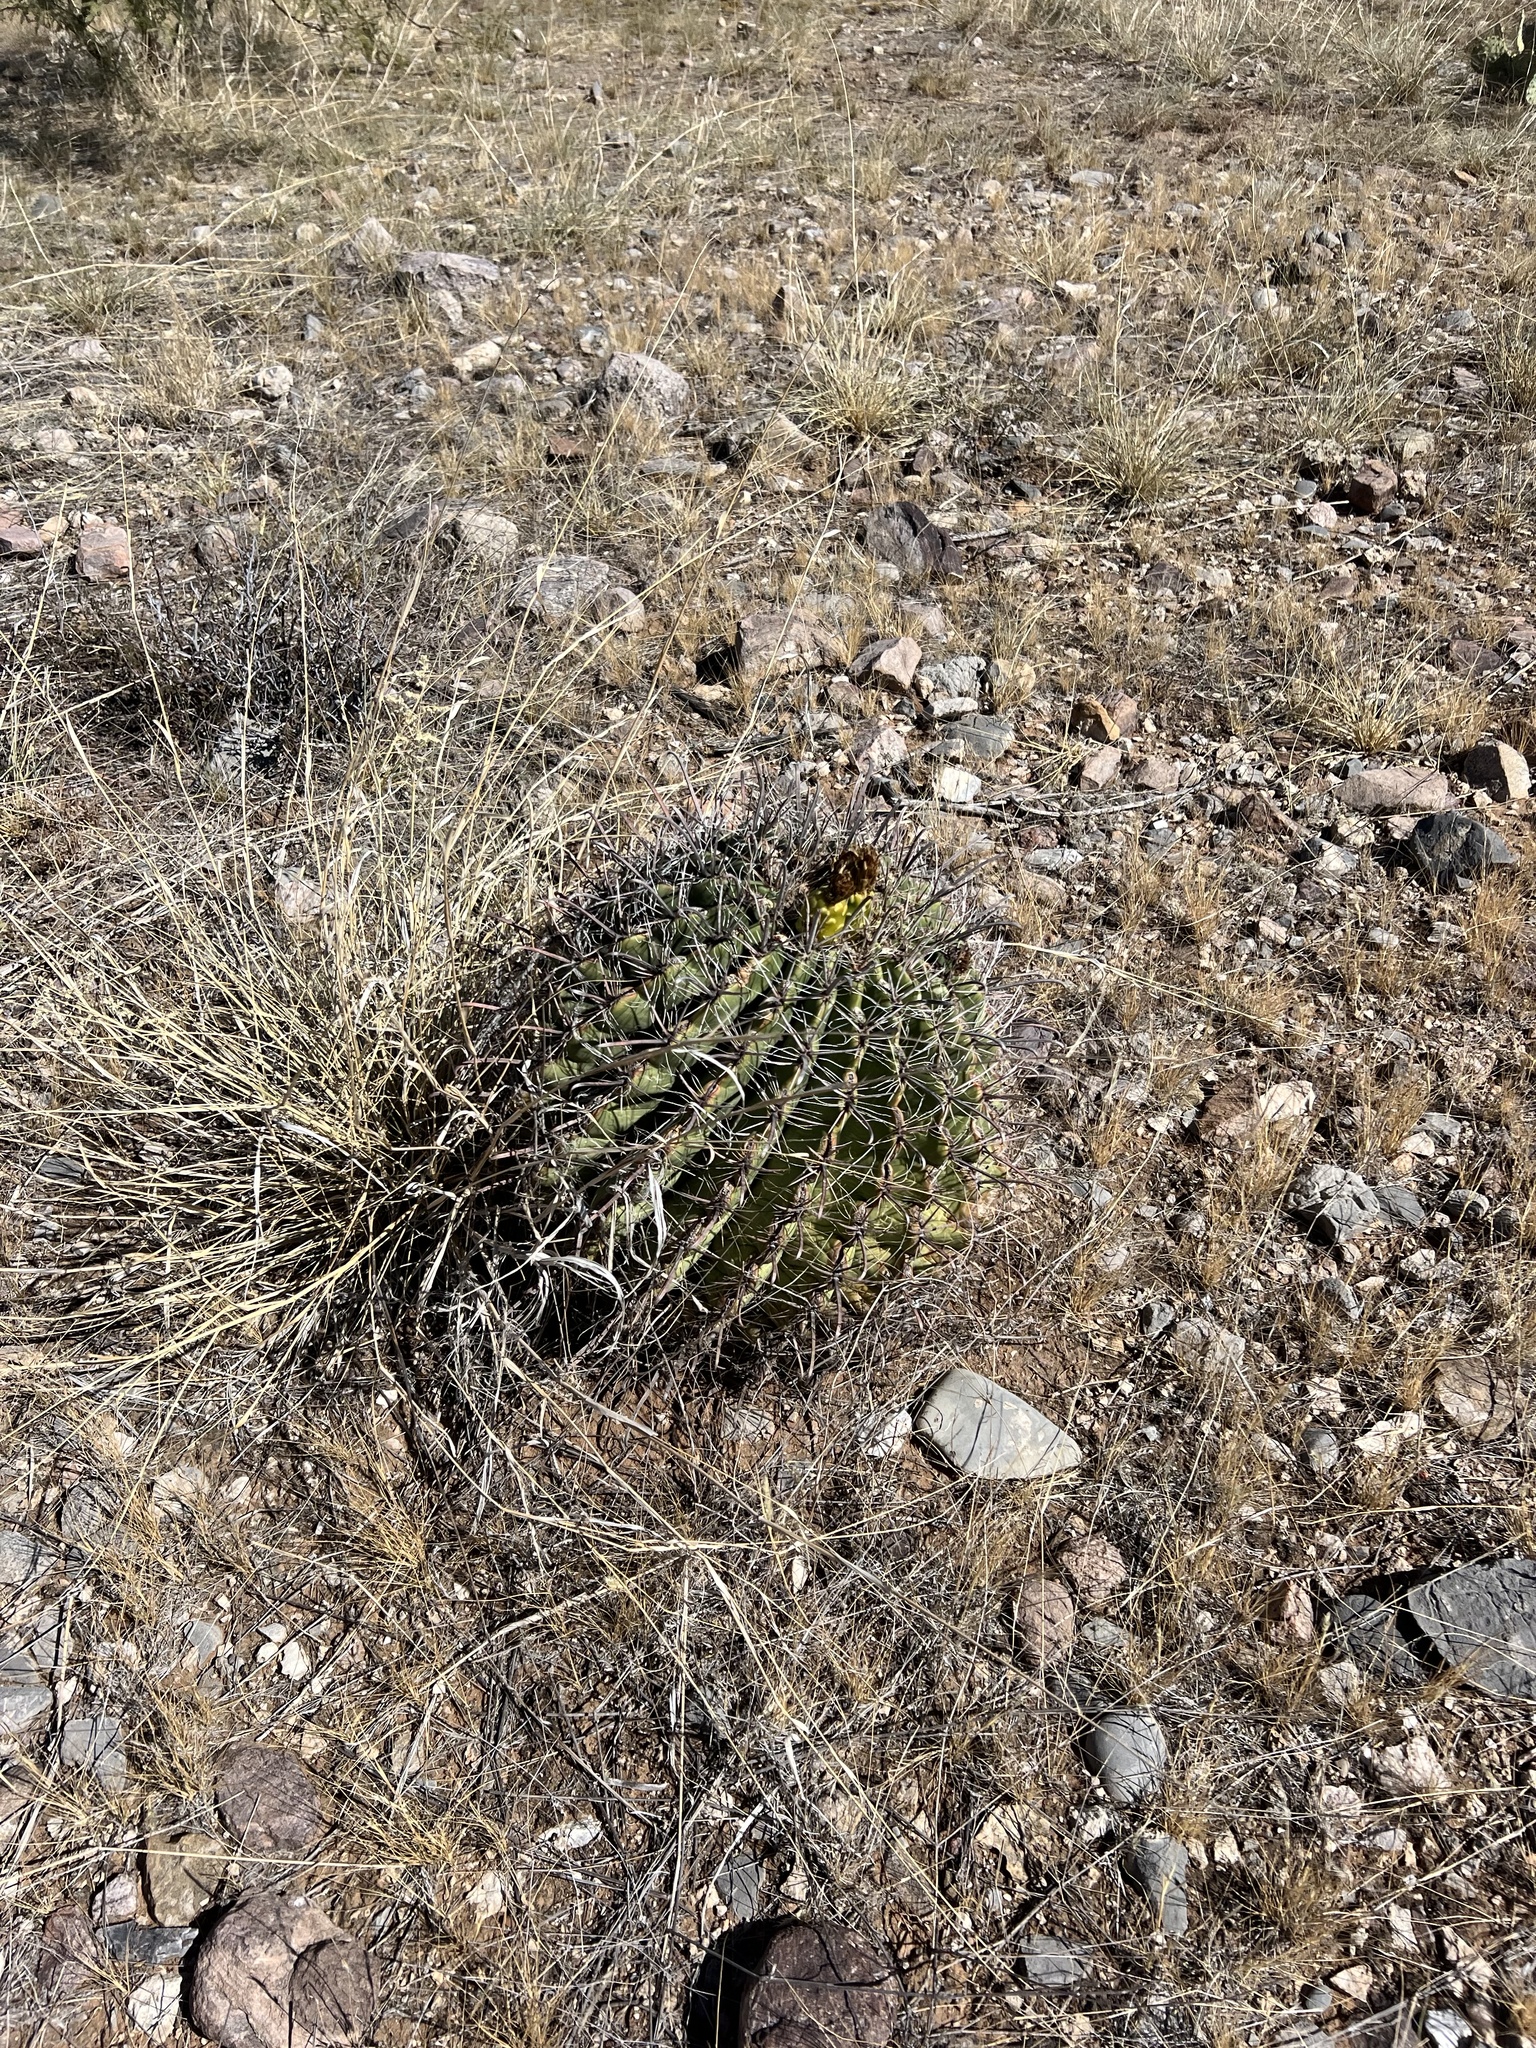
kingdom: Plantae
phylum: Tracheophyta
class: Magnoliopsida
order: Caryophyllales
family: Cactaceae
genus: Ferocactus
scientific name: Ferocactus wislizeni
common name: Candy barrel cactus
